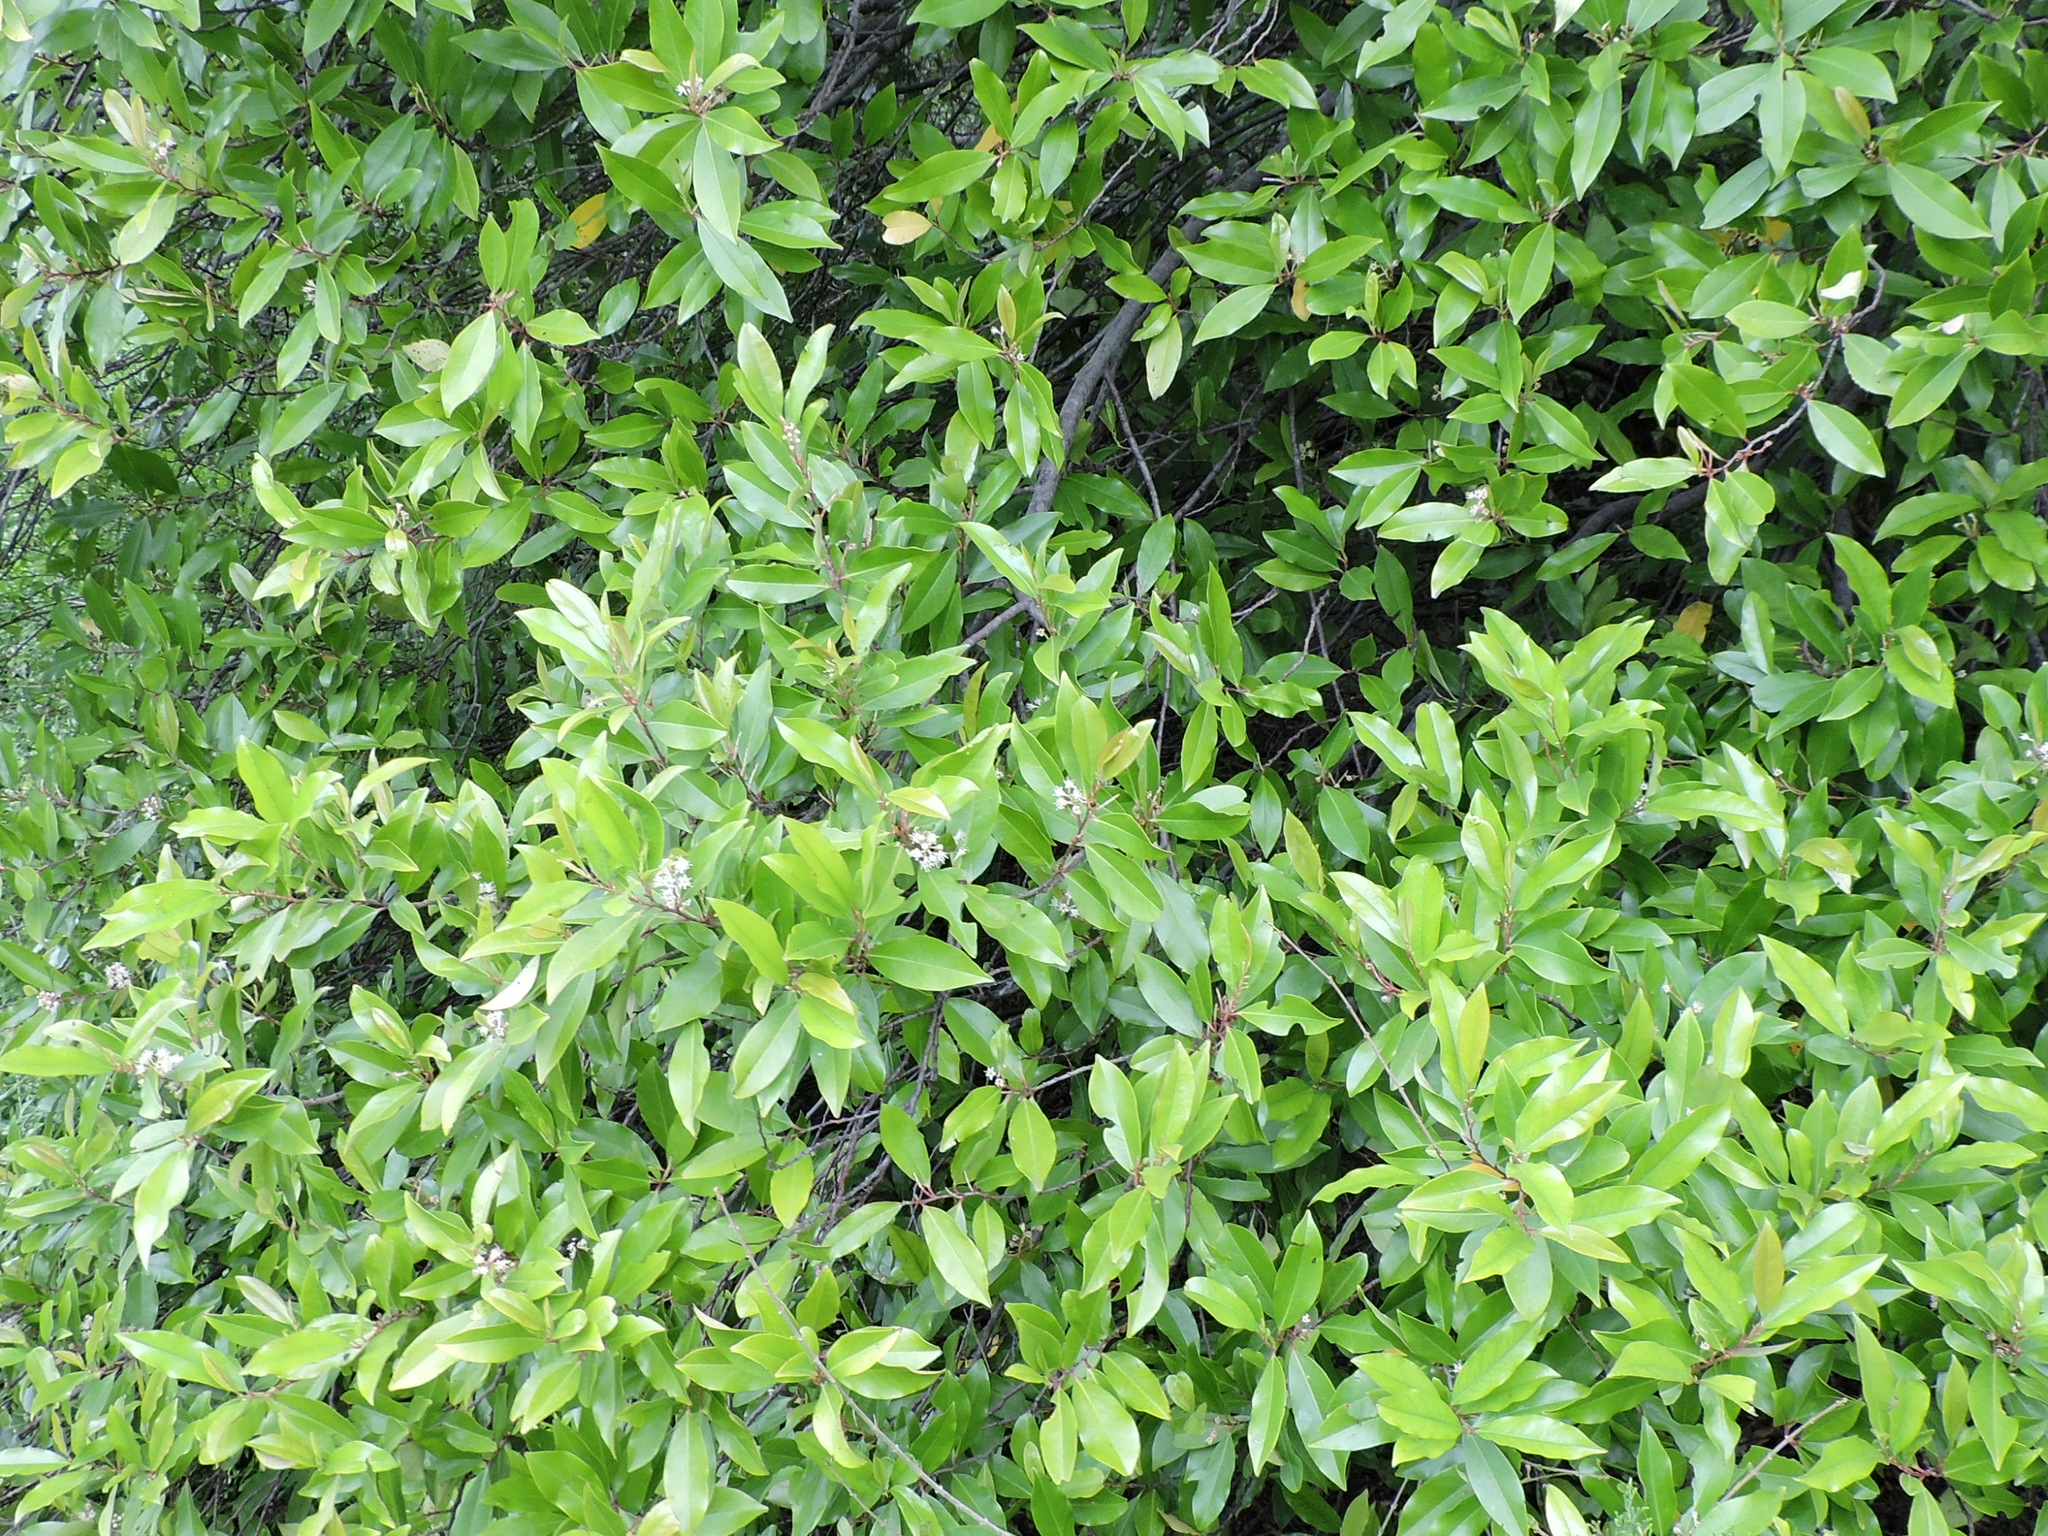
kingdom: Plantae
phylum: Tracheophyta
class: Magnoliopsida
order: Rosales
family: Rosaceae
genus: Prunus
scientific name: Prunus caroliniana
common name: Carolina laurel cherry
